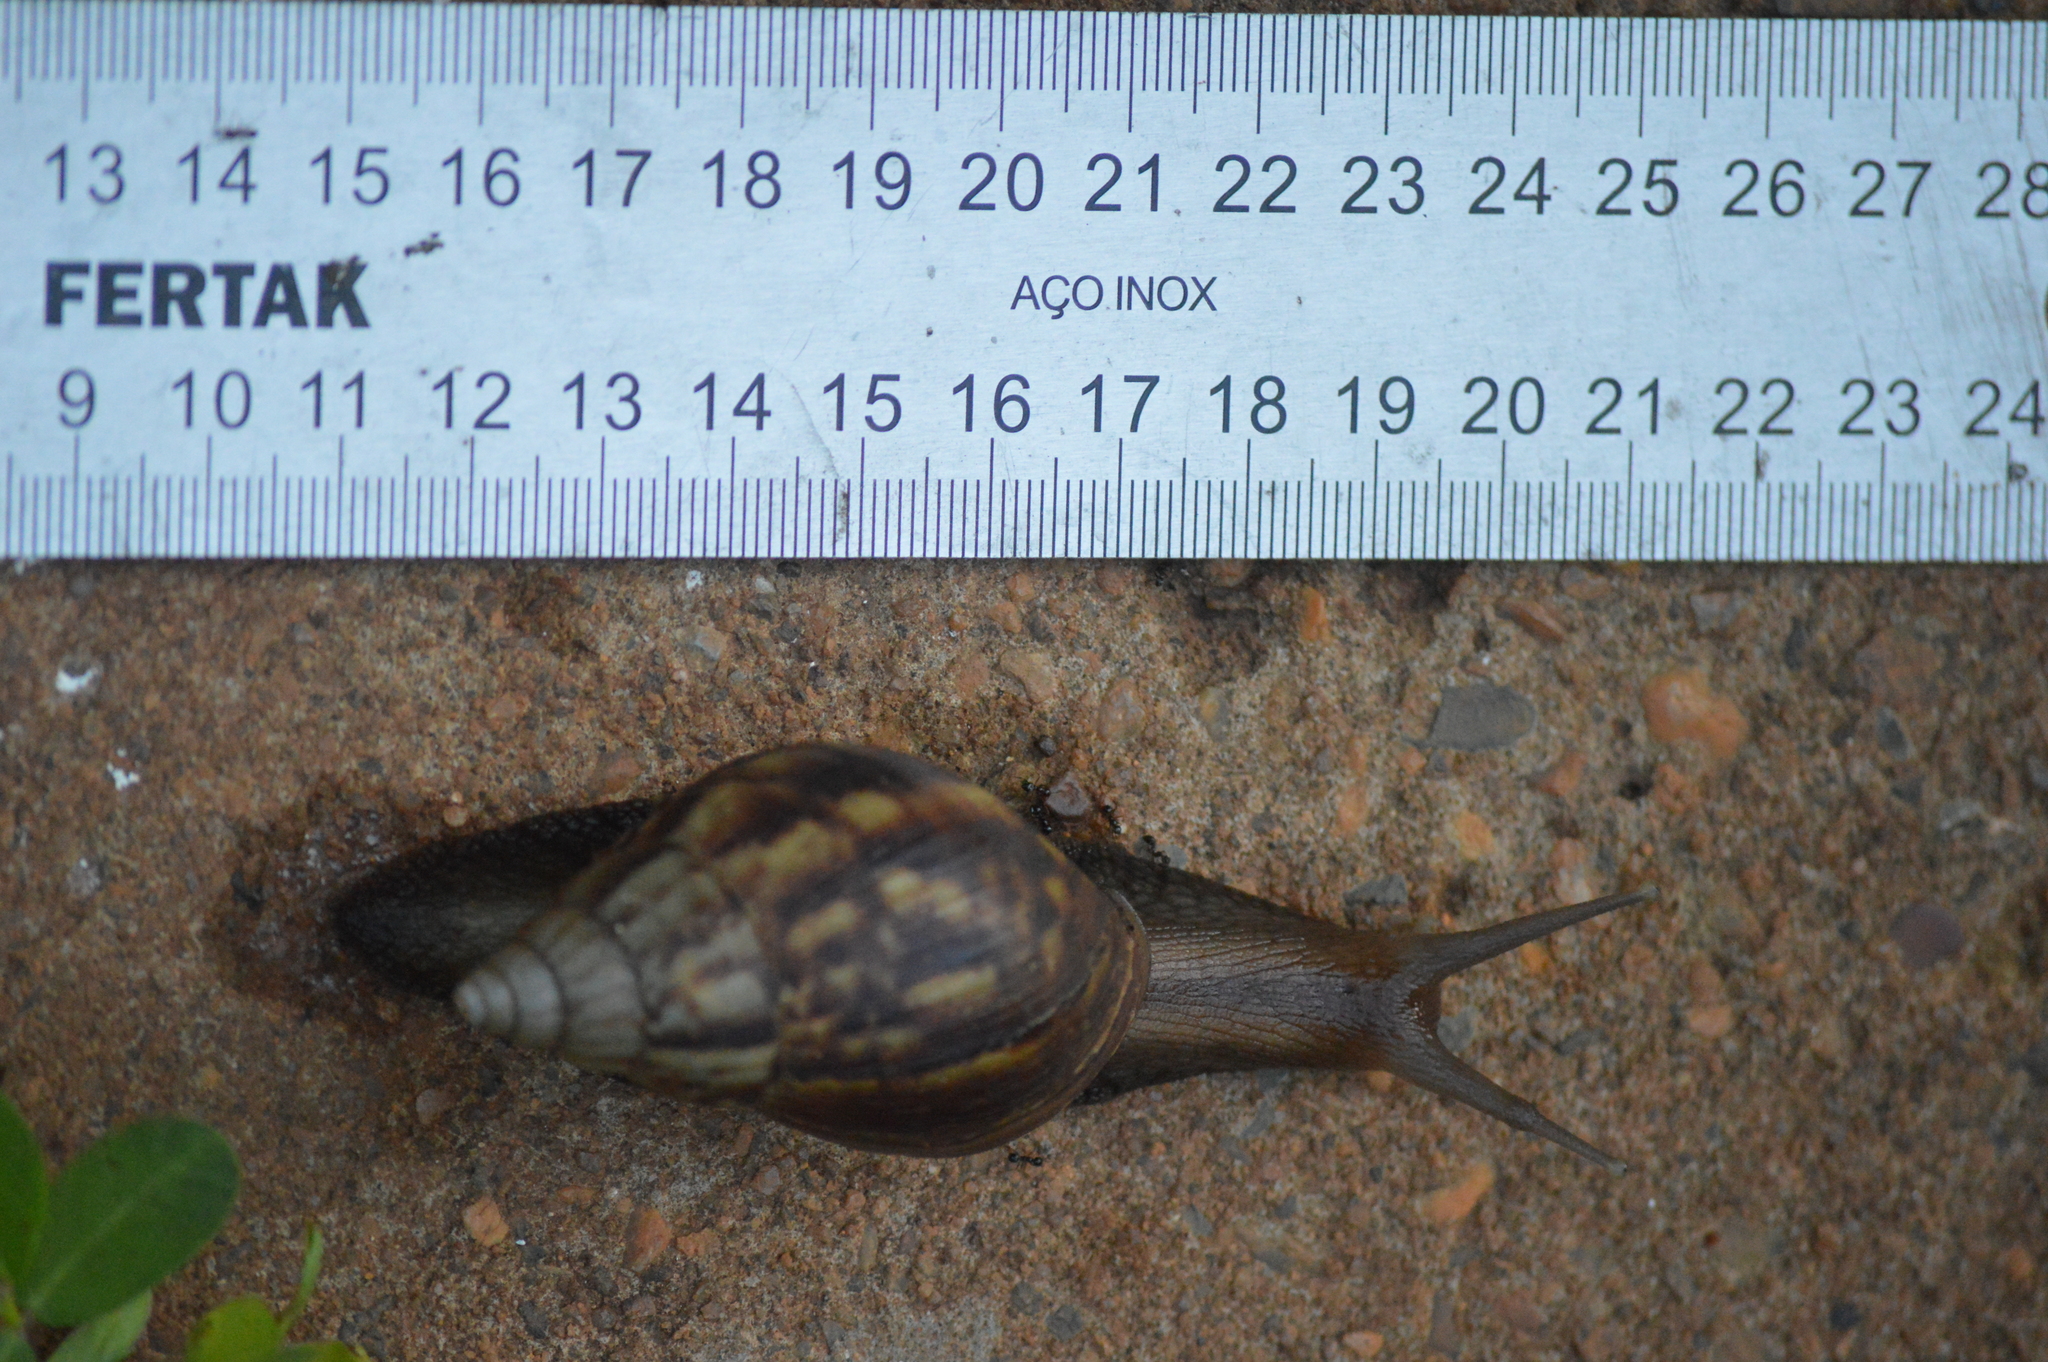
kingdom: Animalia
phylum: Mollusca
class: Gastropoda
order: Stylommatophora
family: Achatinidae
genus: Lissachatina
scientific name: Lissachatina fulica
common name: Giant african snail
